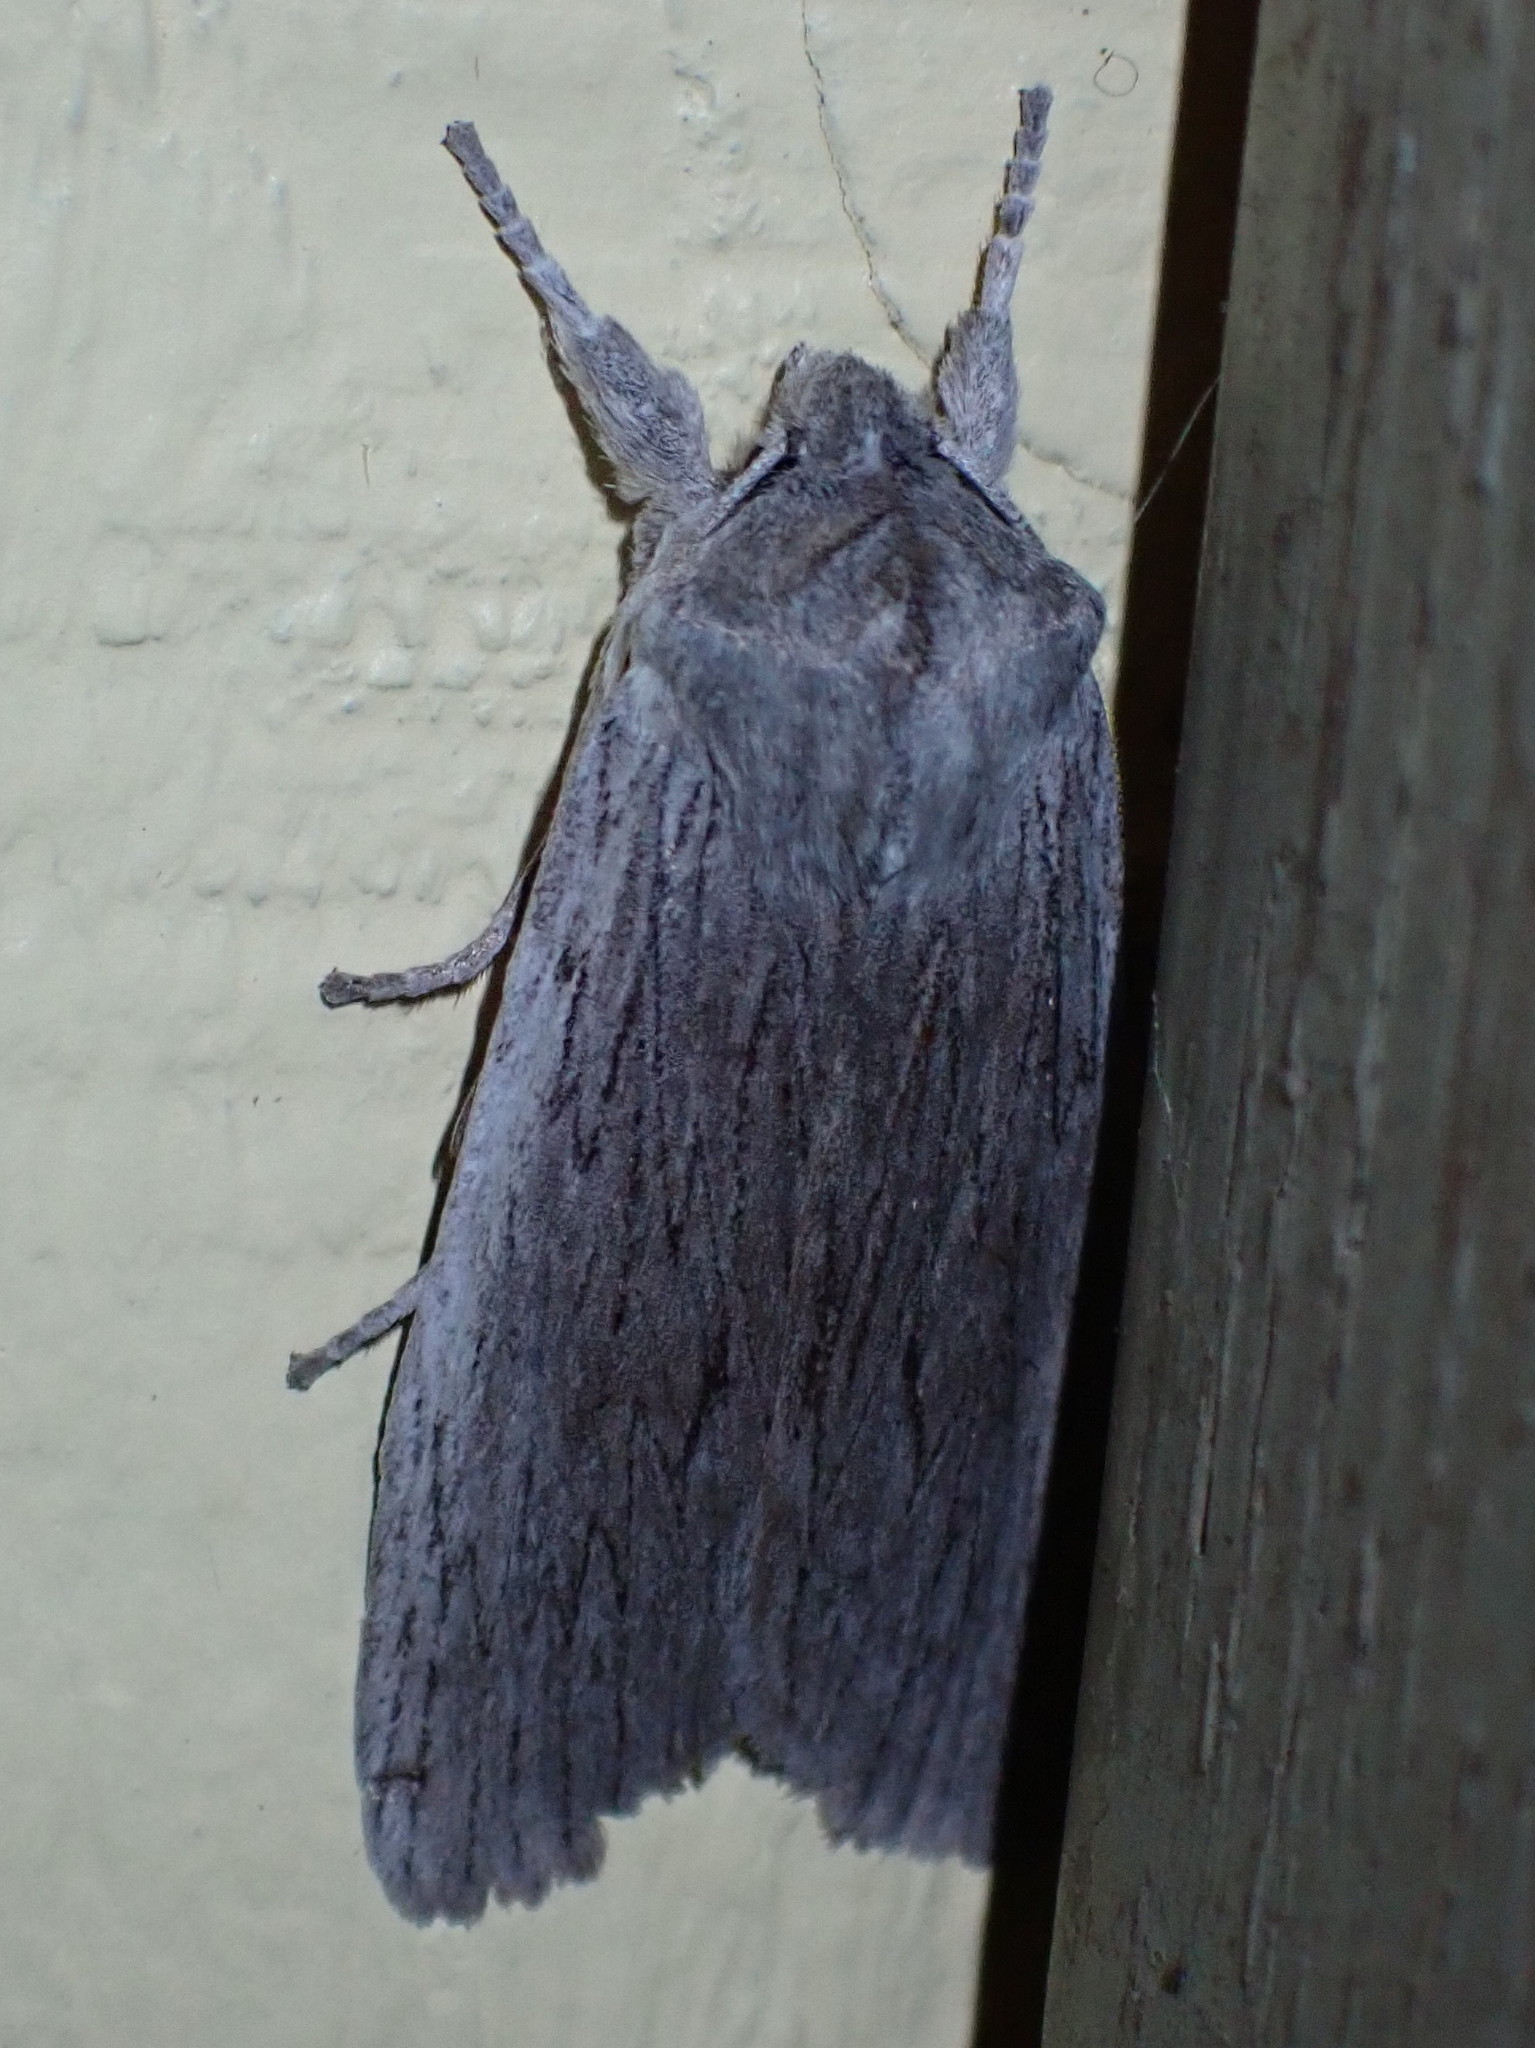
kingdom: Animalia
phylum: Arthropoda
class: Insecta
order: Lepidoptera
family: Noctuidae
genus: Lithophane
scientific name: Lithophane fagina
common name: Hoary pinion moth
